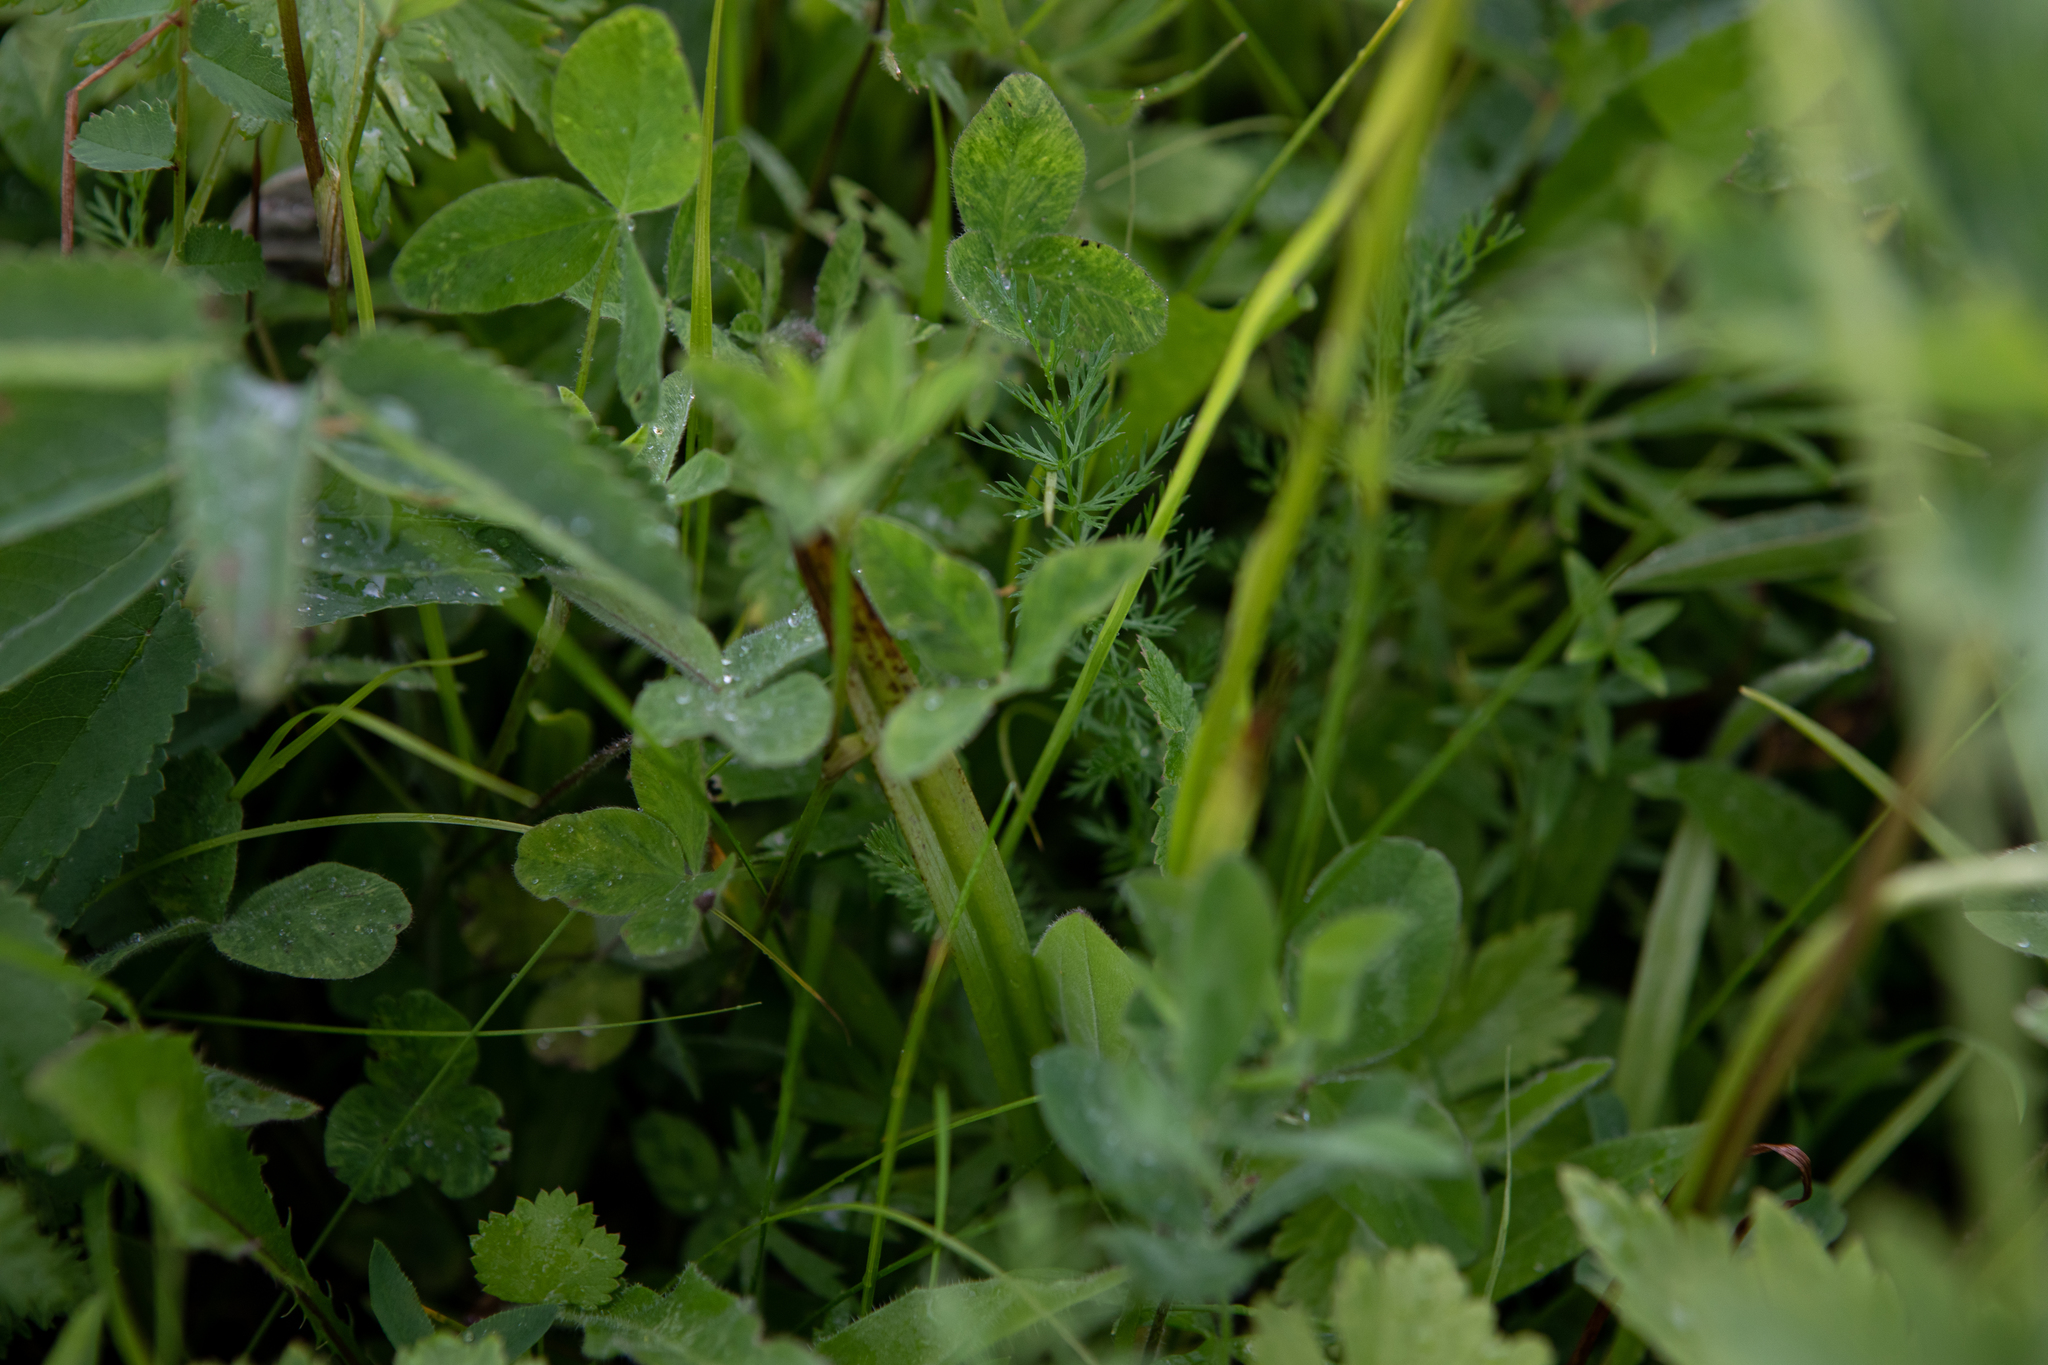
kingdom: Plantae
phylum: Tracheophyta
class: Liliopsida
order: Asparagales
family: Orchidaceae
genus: Gymnadenia
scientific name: Gymnadenia conopsea
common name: Fragrant orchid
